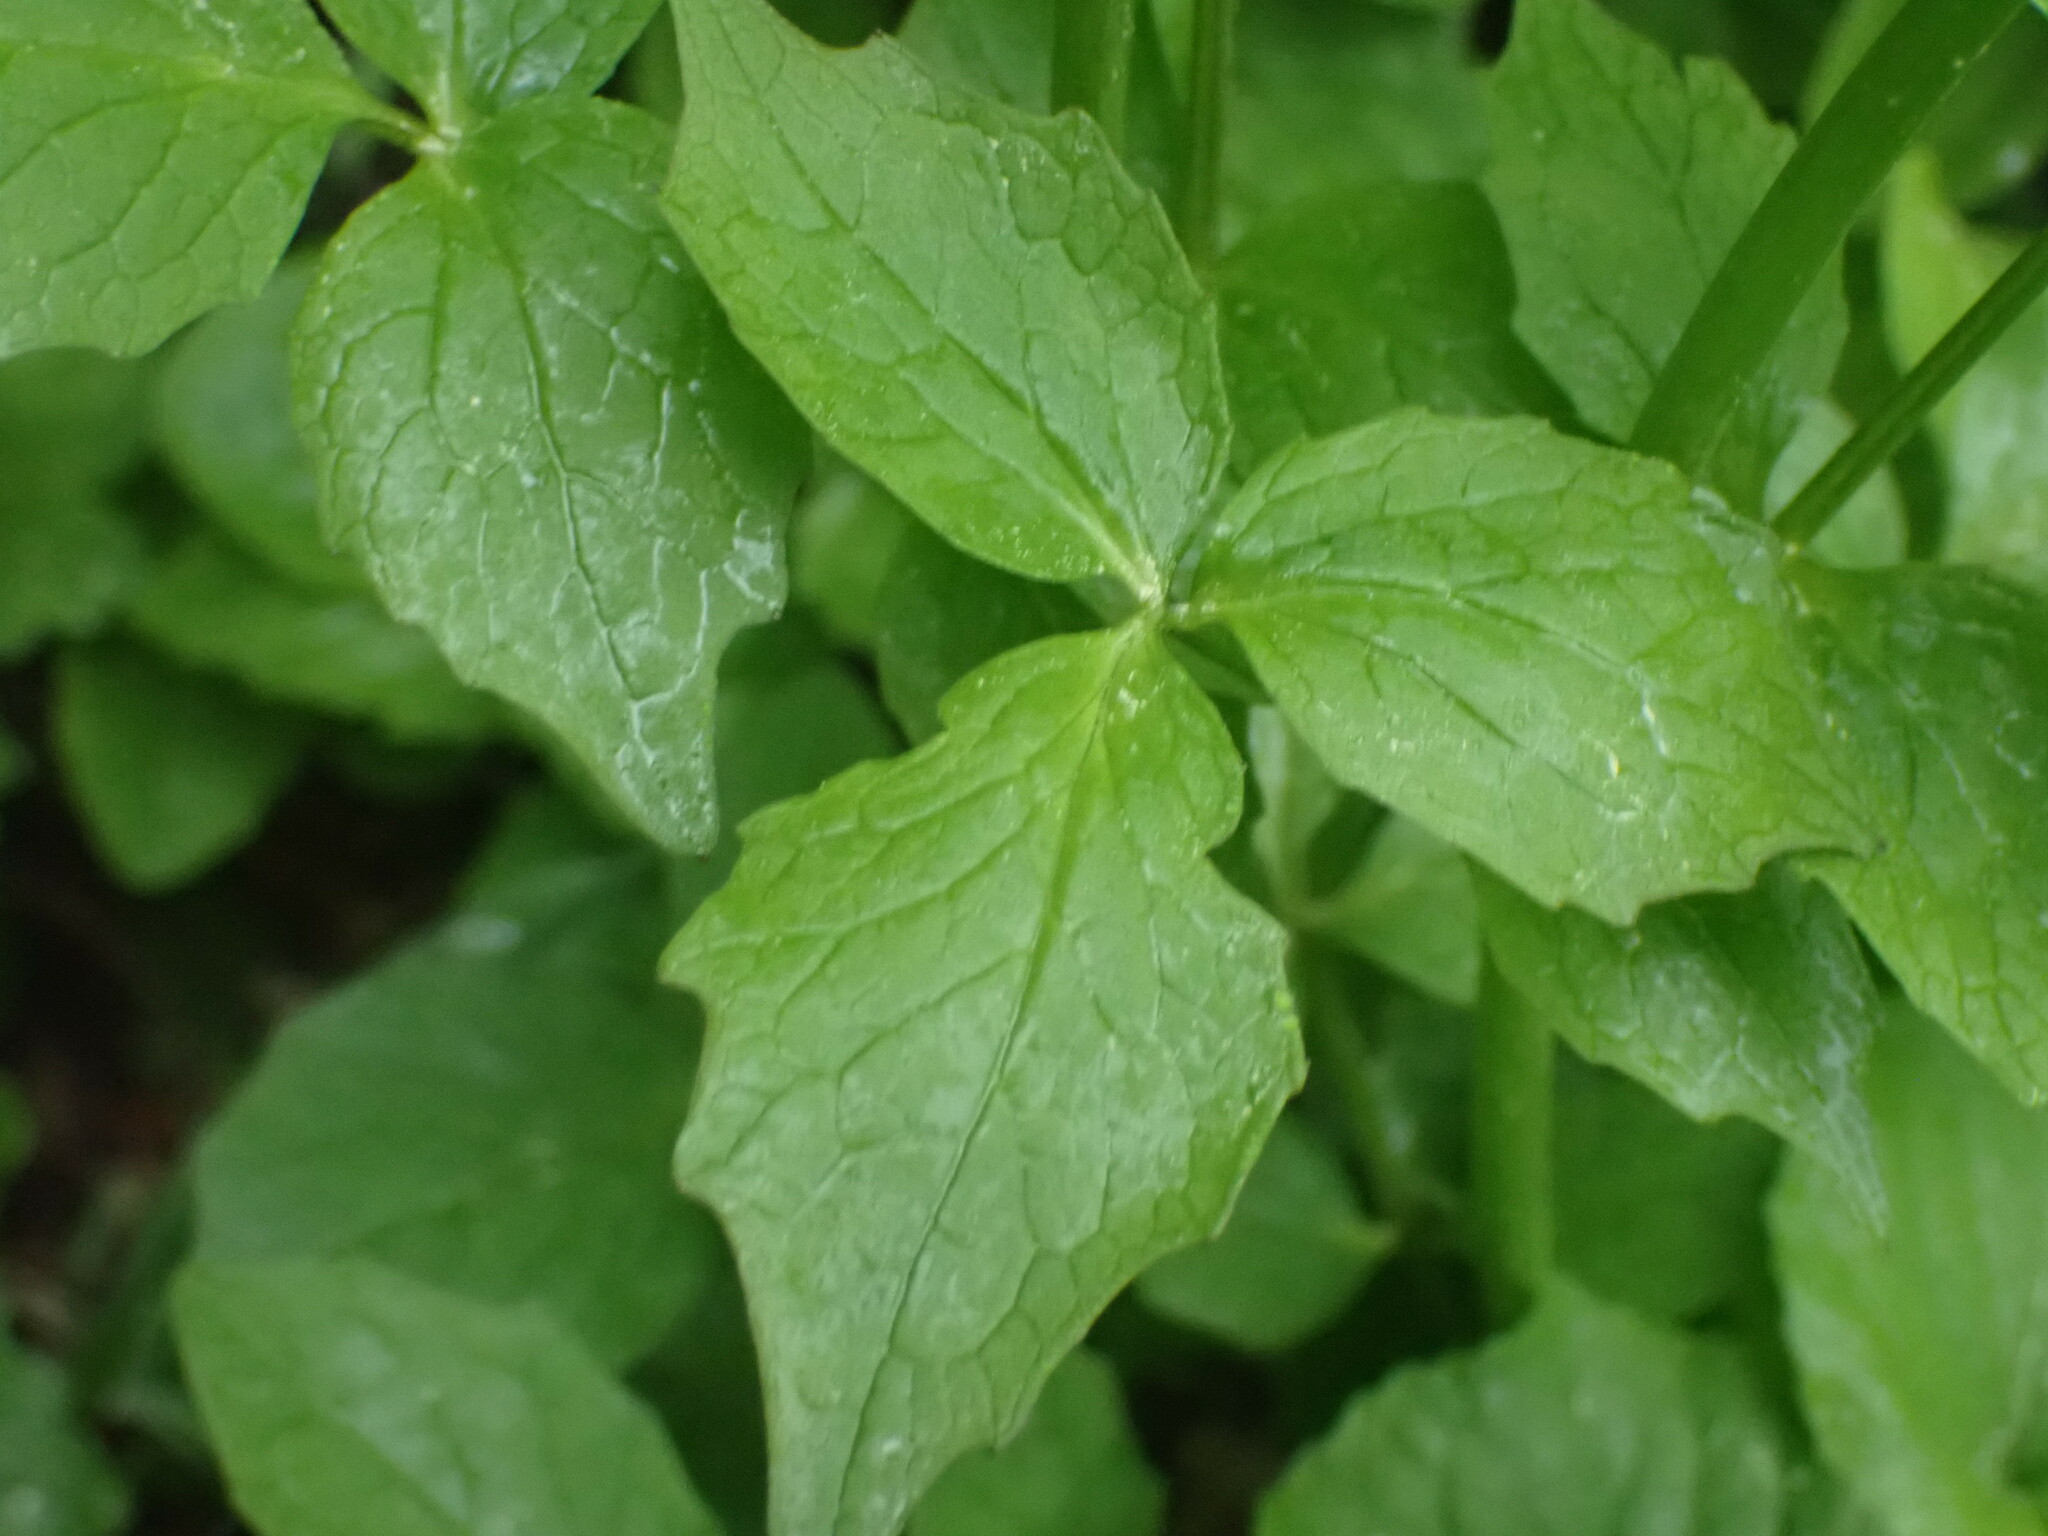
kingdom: Plantae
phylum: Tracheophyta
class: Magnoliopsida
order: Dipsacales
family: Caprifoliaceae
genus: Valeriana
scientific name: Valeriana sitchensis
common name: Pacific valerian
